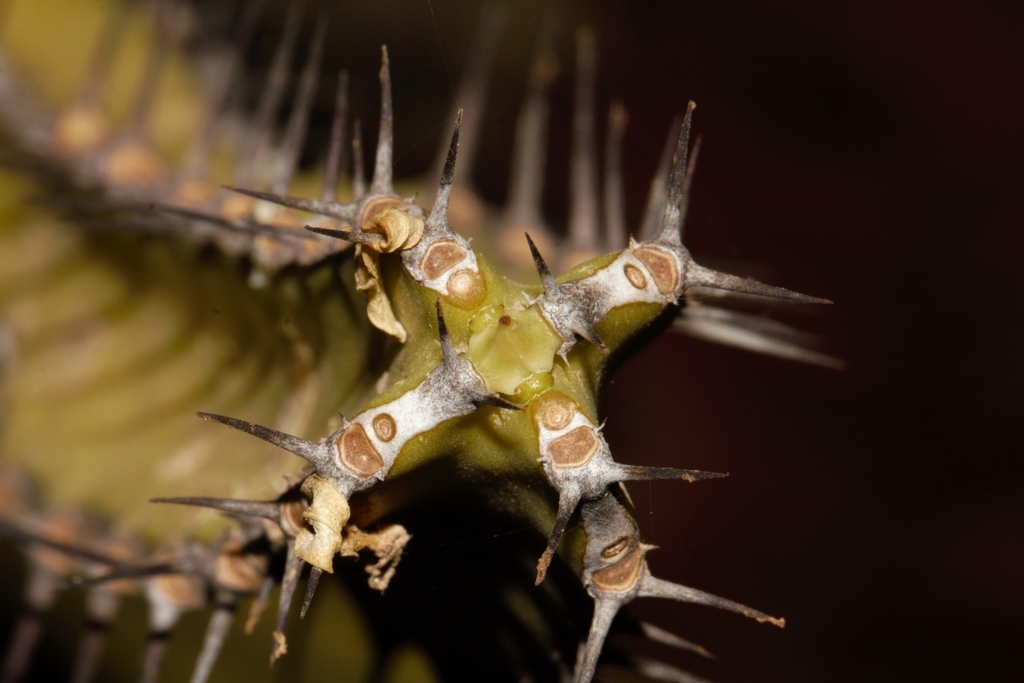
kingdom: Plantae
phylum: Tracheophyta
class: Magnoliopsida
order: Malpighiales
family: Euphorbiaceae
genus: Euphorbia
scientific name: Euphorbia griseola
